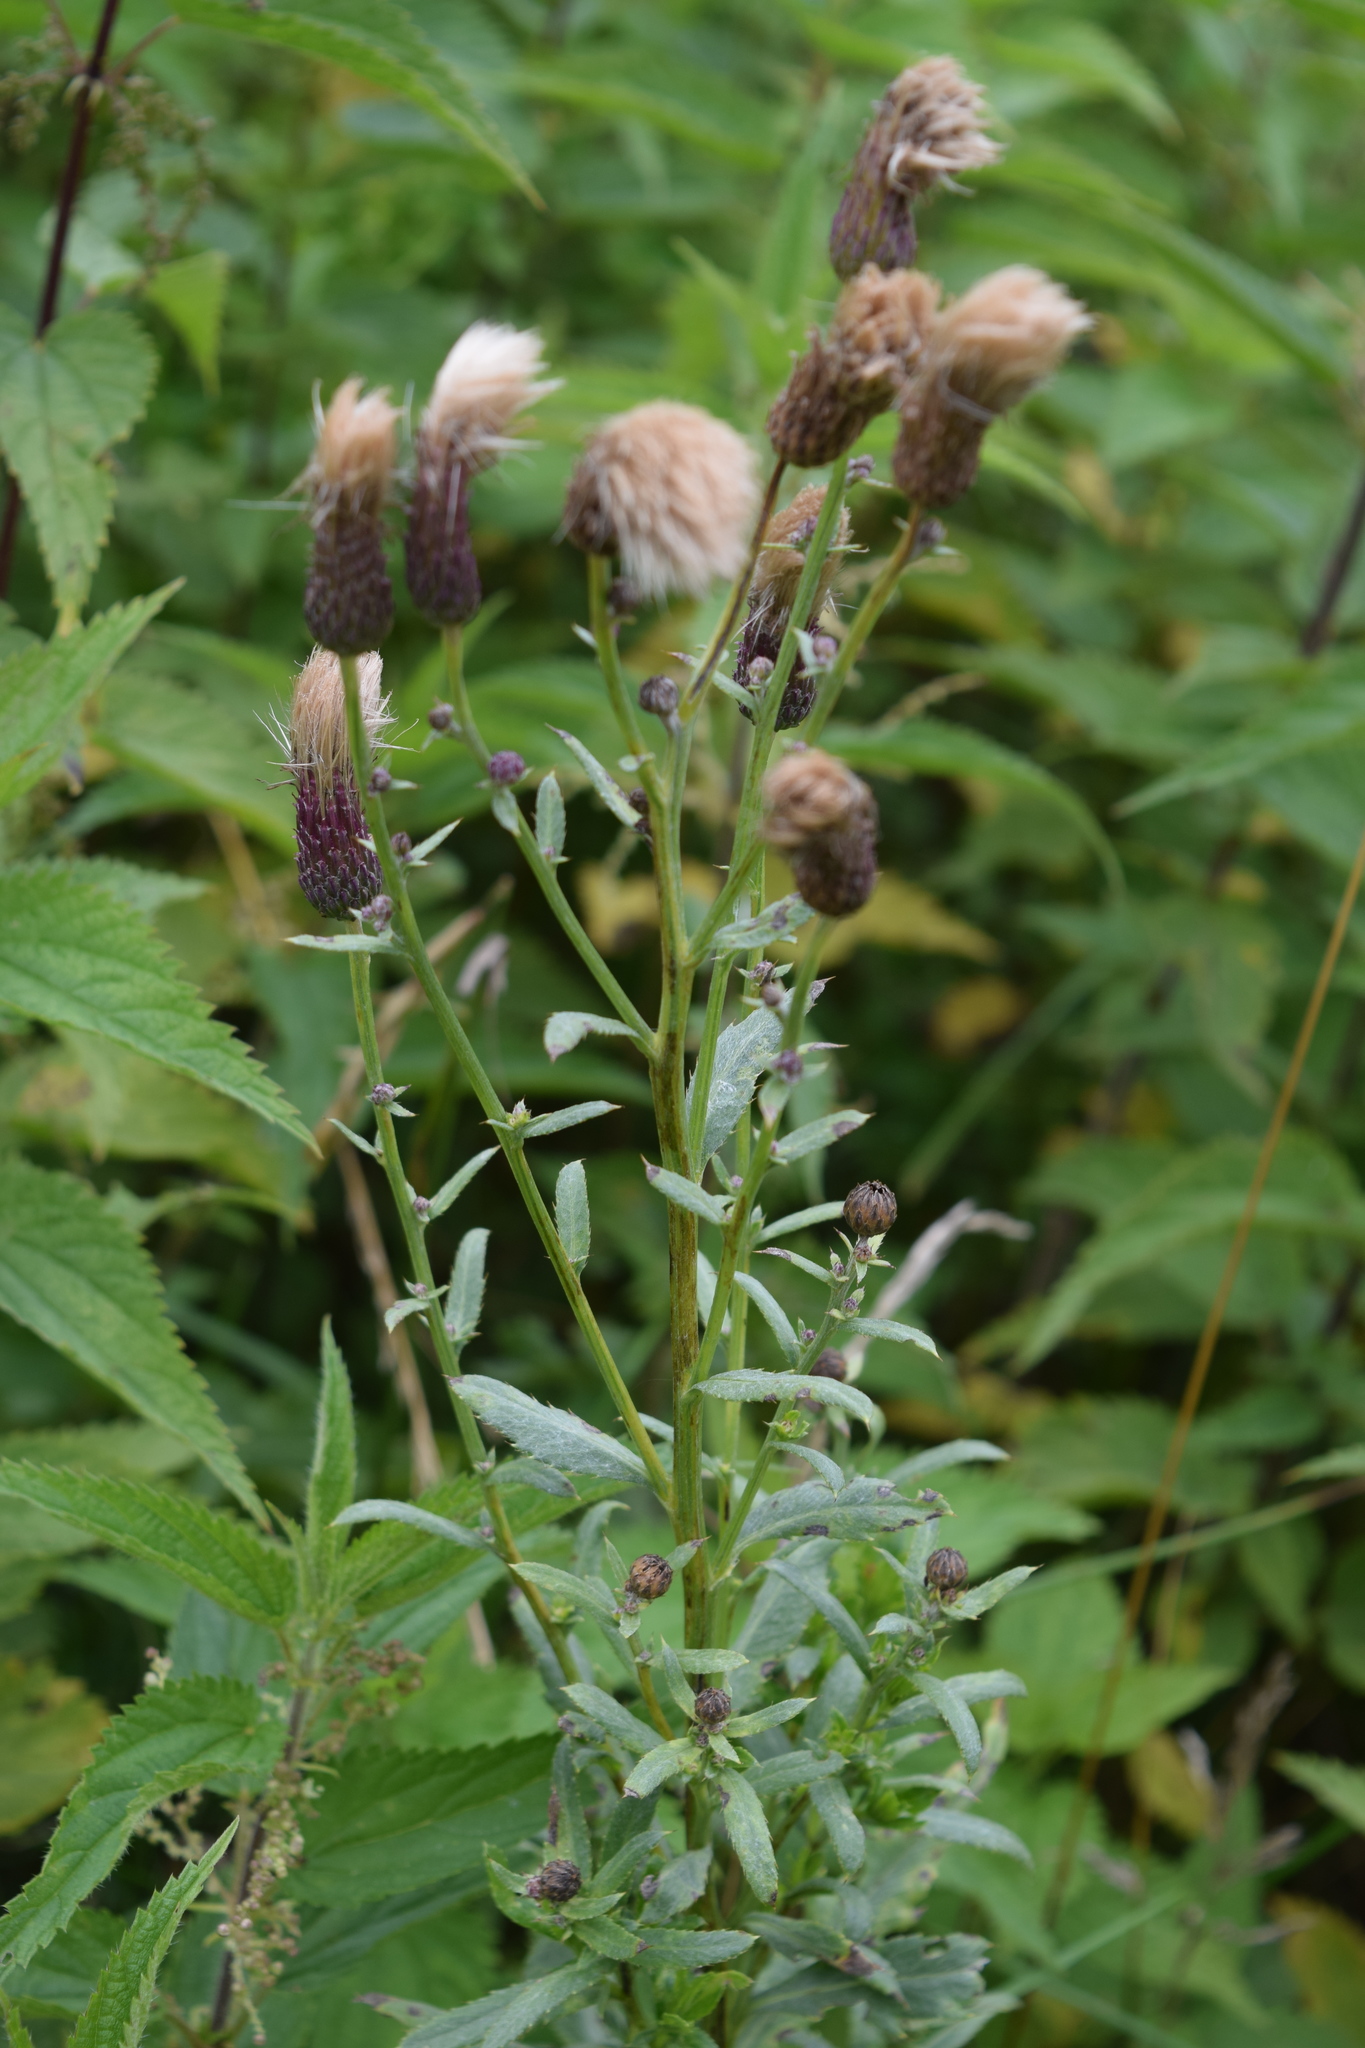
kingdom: Plantae
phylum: Tracheophyta
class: Magnoliopsida
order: Asterales
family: Asteraceae
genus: Cirsium
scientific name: Cirsium arvense
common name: Creeping thistle
